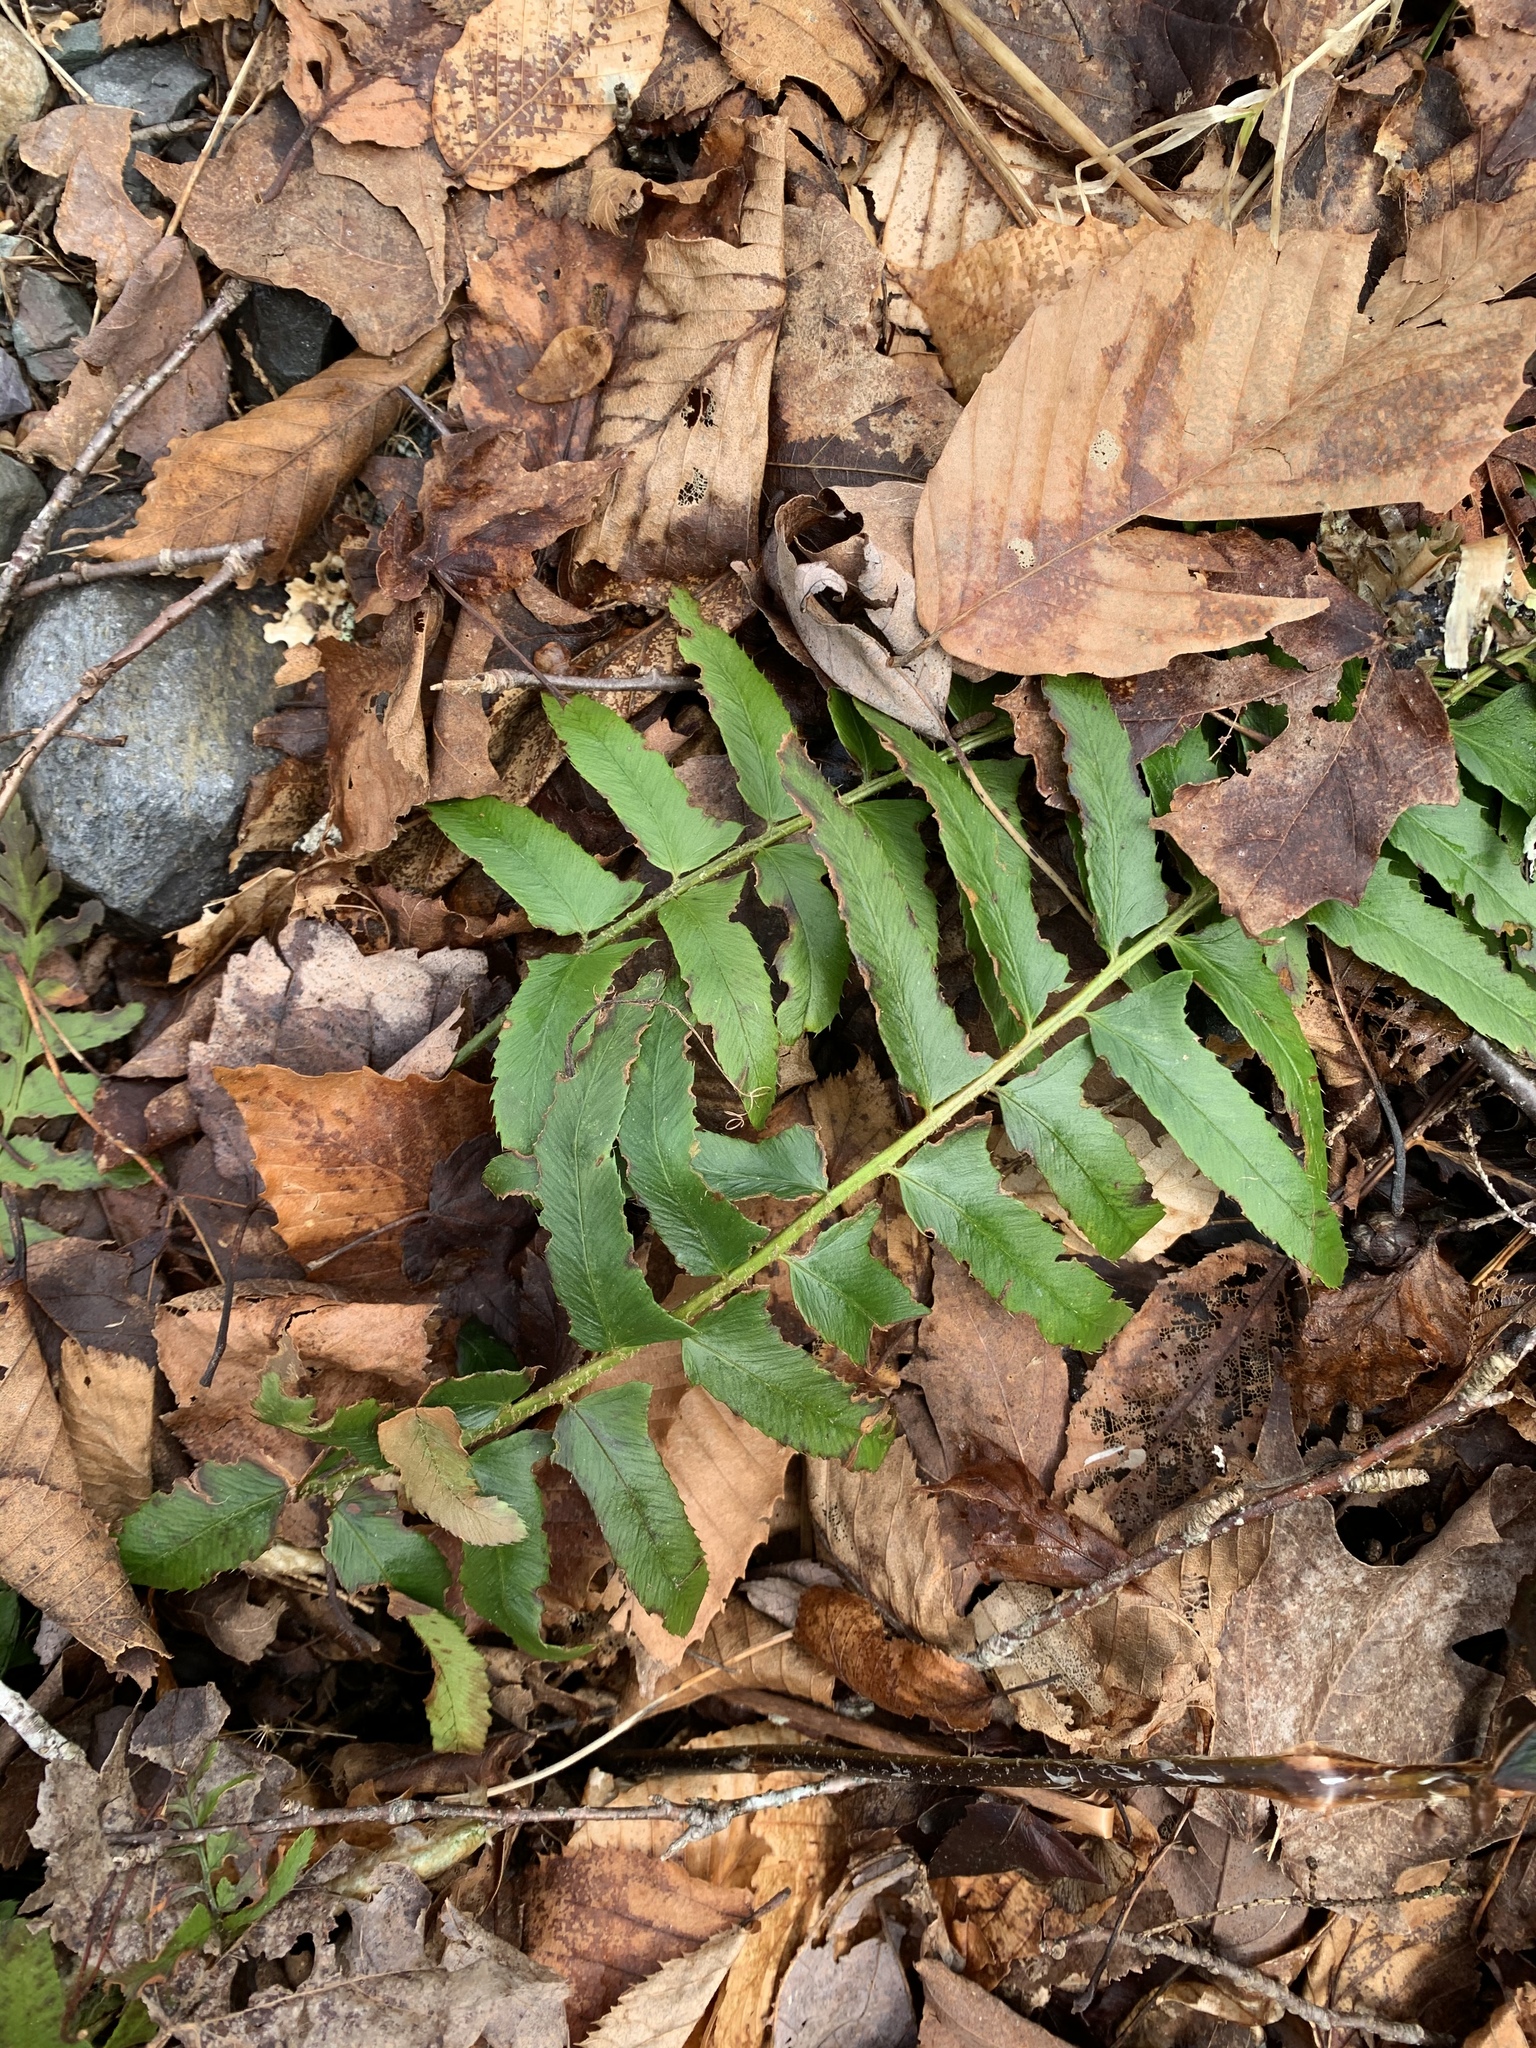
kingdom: Plantae
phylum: Tracheophyta
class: Polypodiopsida
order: Polypodiales
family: Dryopteridaceae
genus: Polystichum
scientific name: Polystichum acrostichoides
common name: Christmas fern
